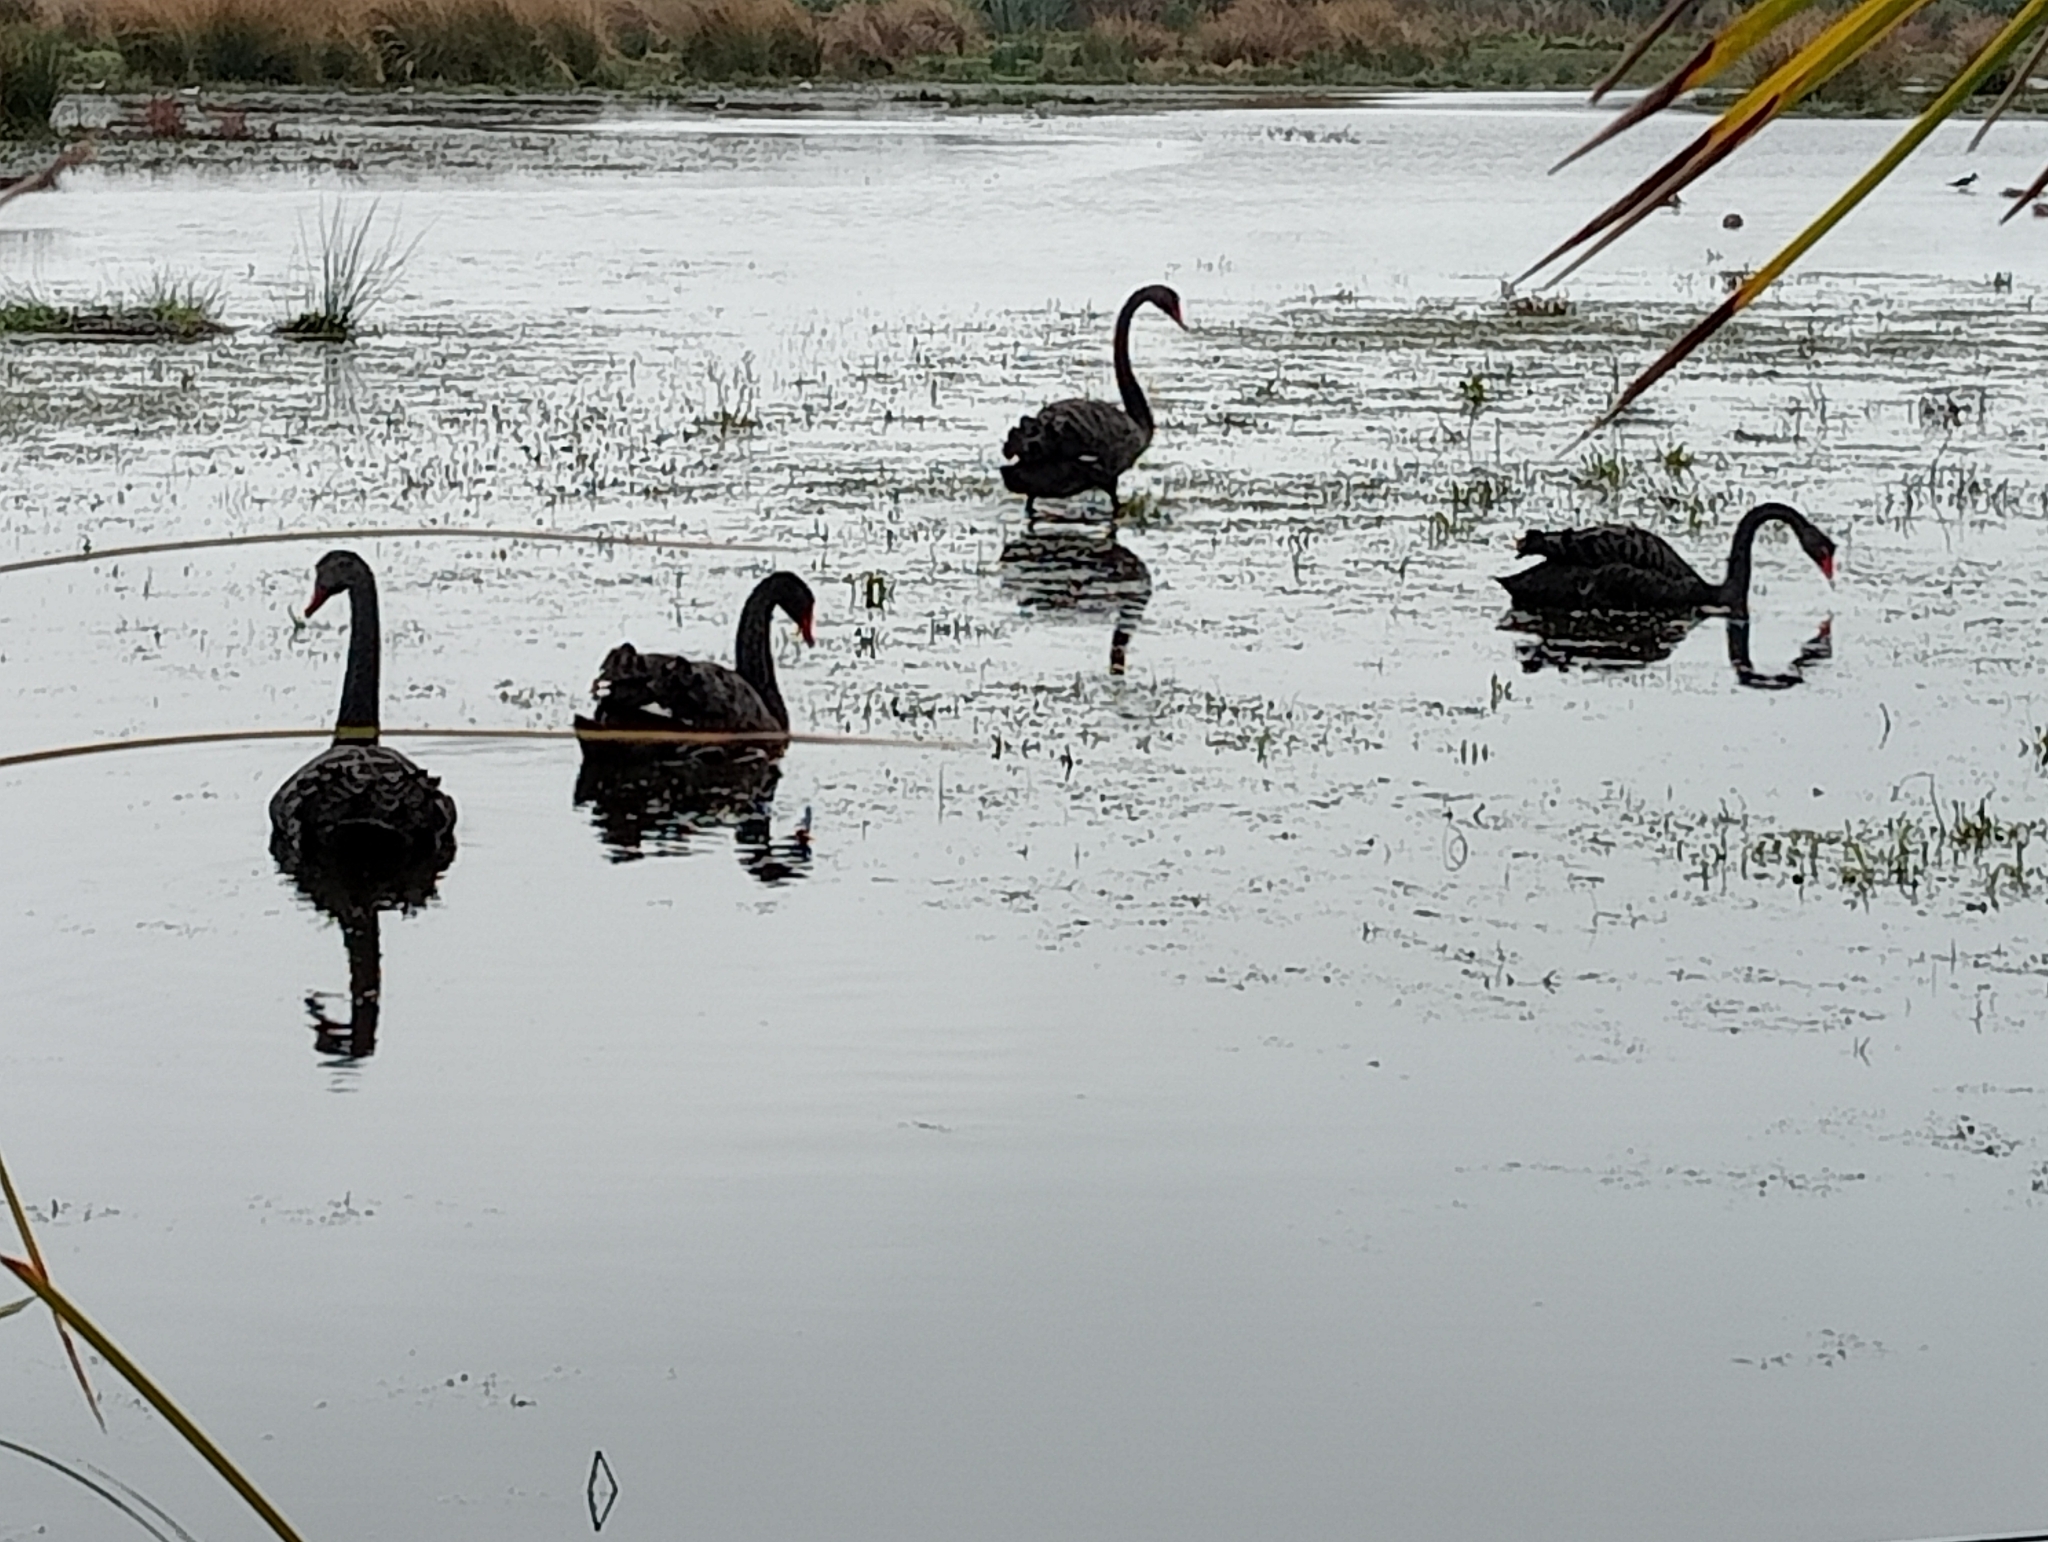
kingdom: Animalia
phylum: Chordata
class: Aves
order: Anseriformes
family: Anatidae
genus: Cygnus
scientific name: Cygnus atratus
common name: Black swan
